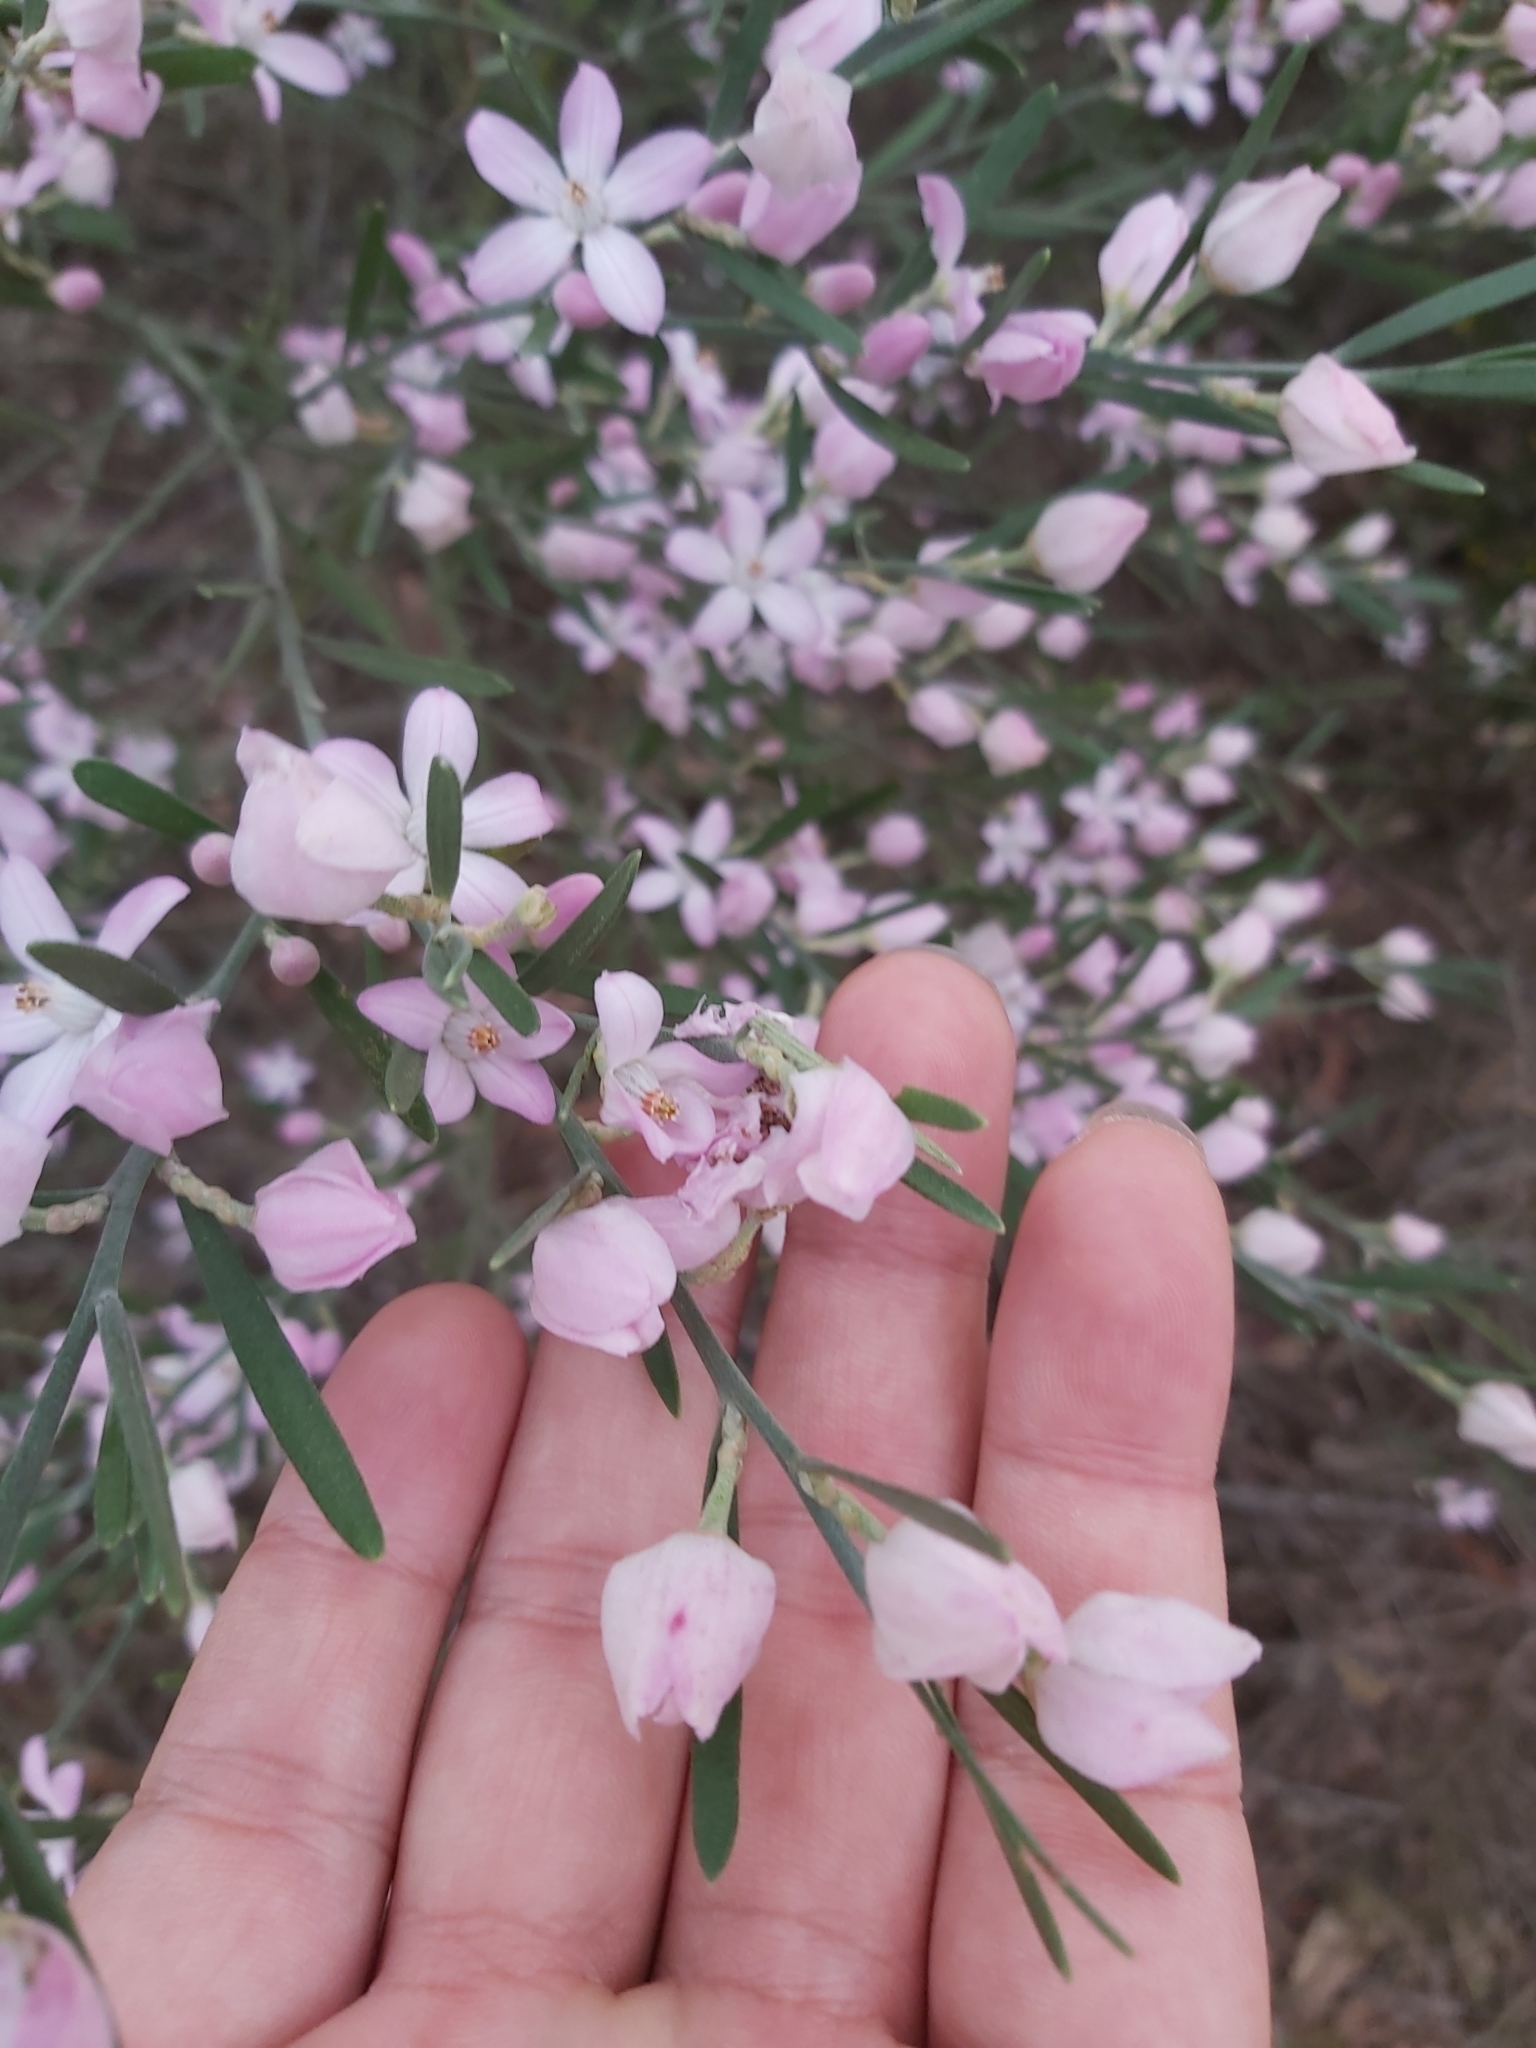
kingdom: Plantae
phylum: Tracheophyta
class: Magnoliopsida
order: Sapindales
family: Rutaceae
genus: Eriostemon
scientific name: Eriostemon australasius
